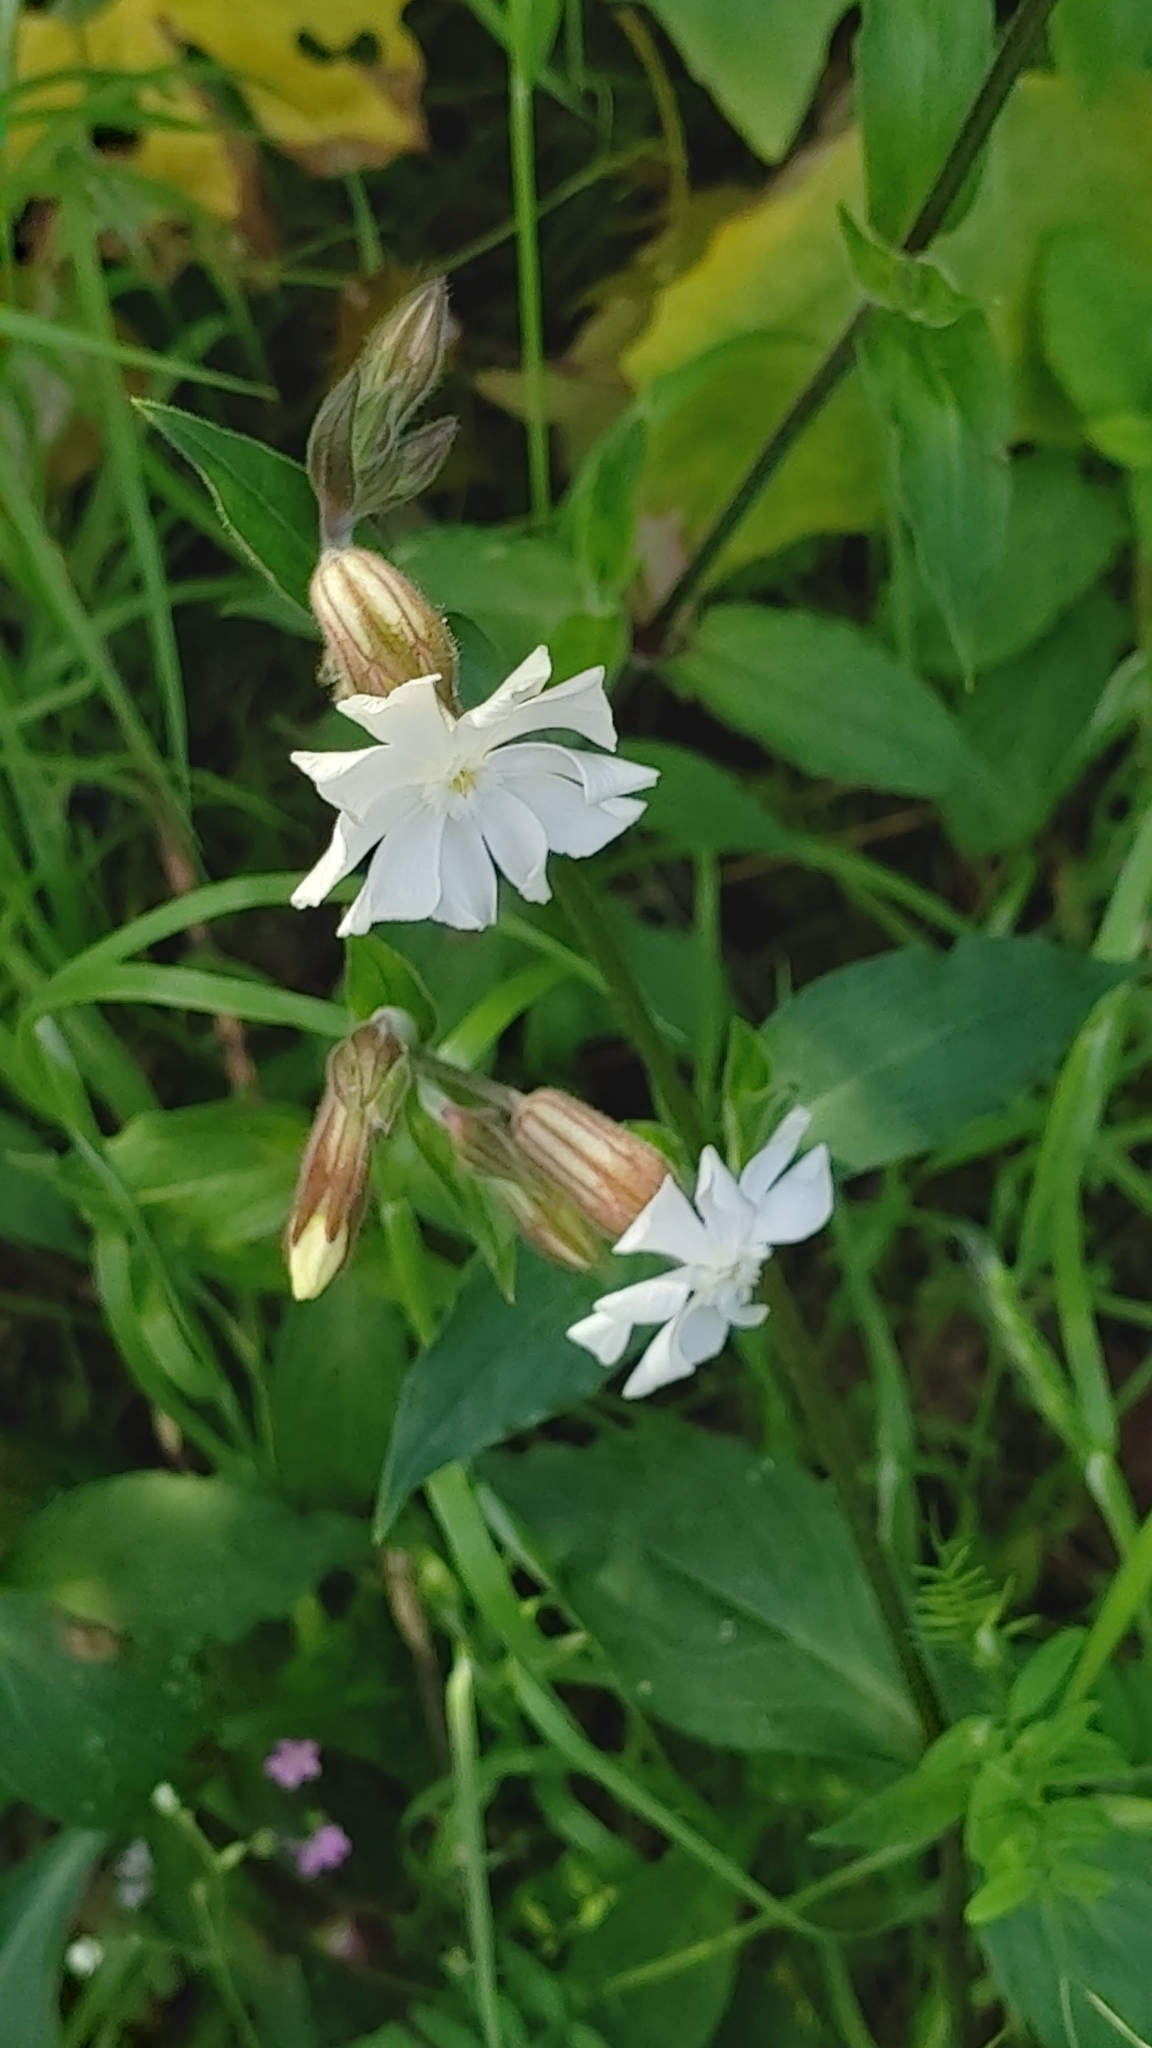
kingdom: Plantae
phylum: Tracheophyta
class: Magnoliopsida
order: Caryophyllales
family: Caryophyllaceae
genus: Silene
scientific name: Silene latifolia
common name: White campion
